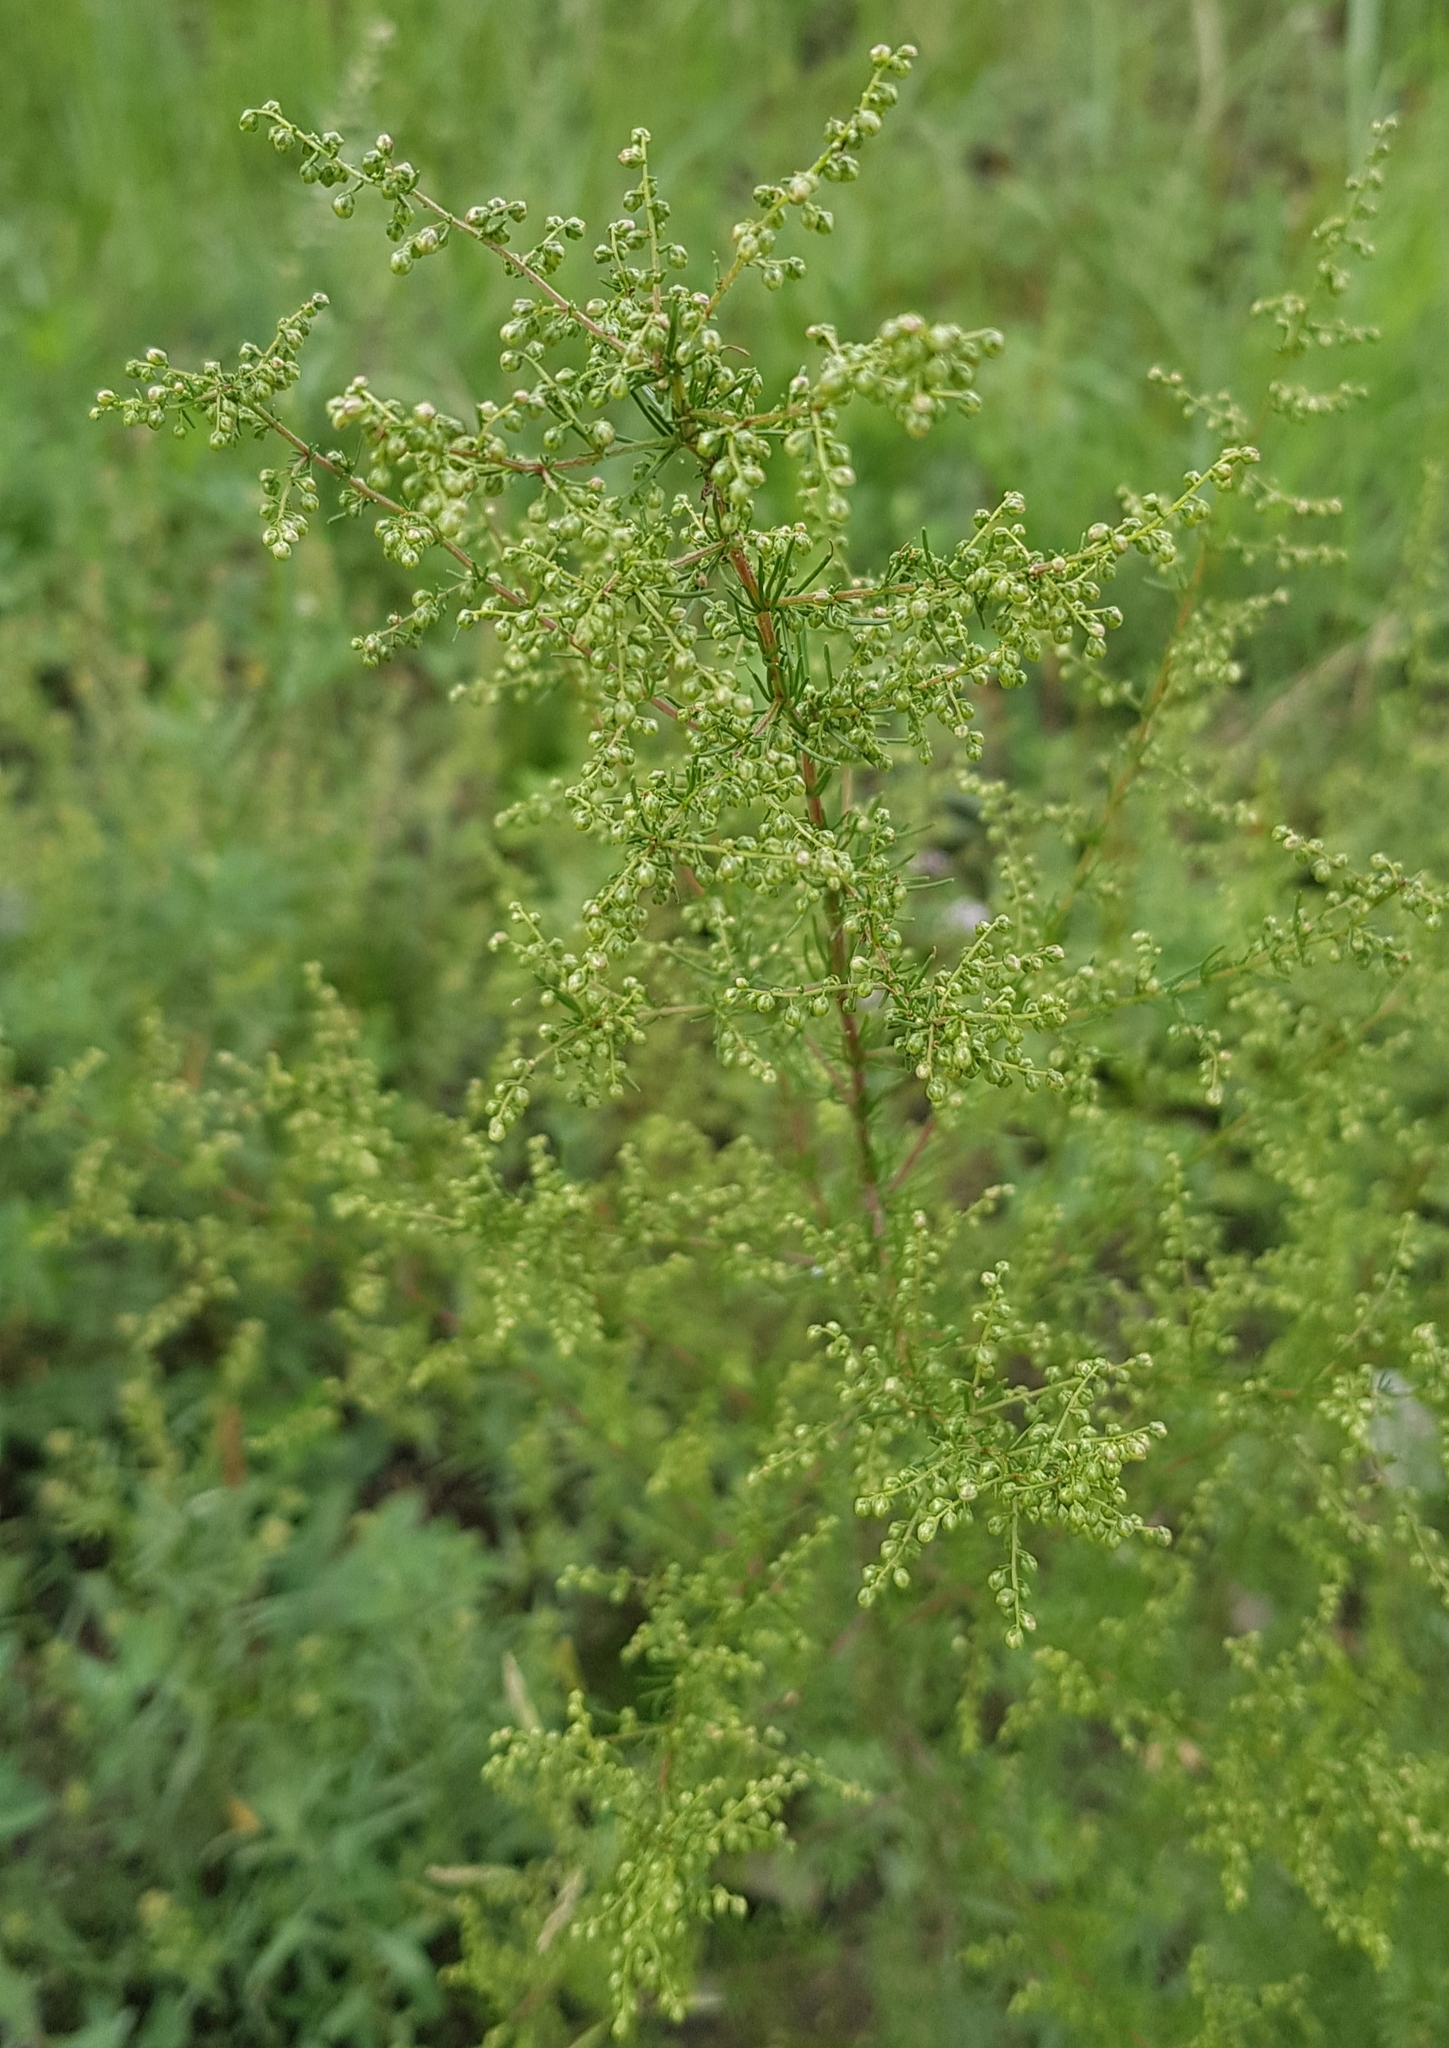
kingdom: Plantae
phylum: Tracheophyta
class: Magnoliopsida
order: Asterales
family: Asteraceae
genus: Artemisia
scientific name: Artemisia scoparia
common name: Redstem wormwood
